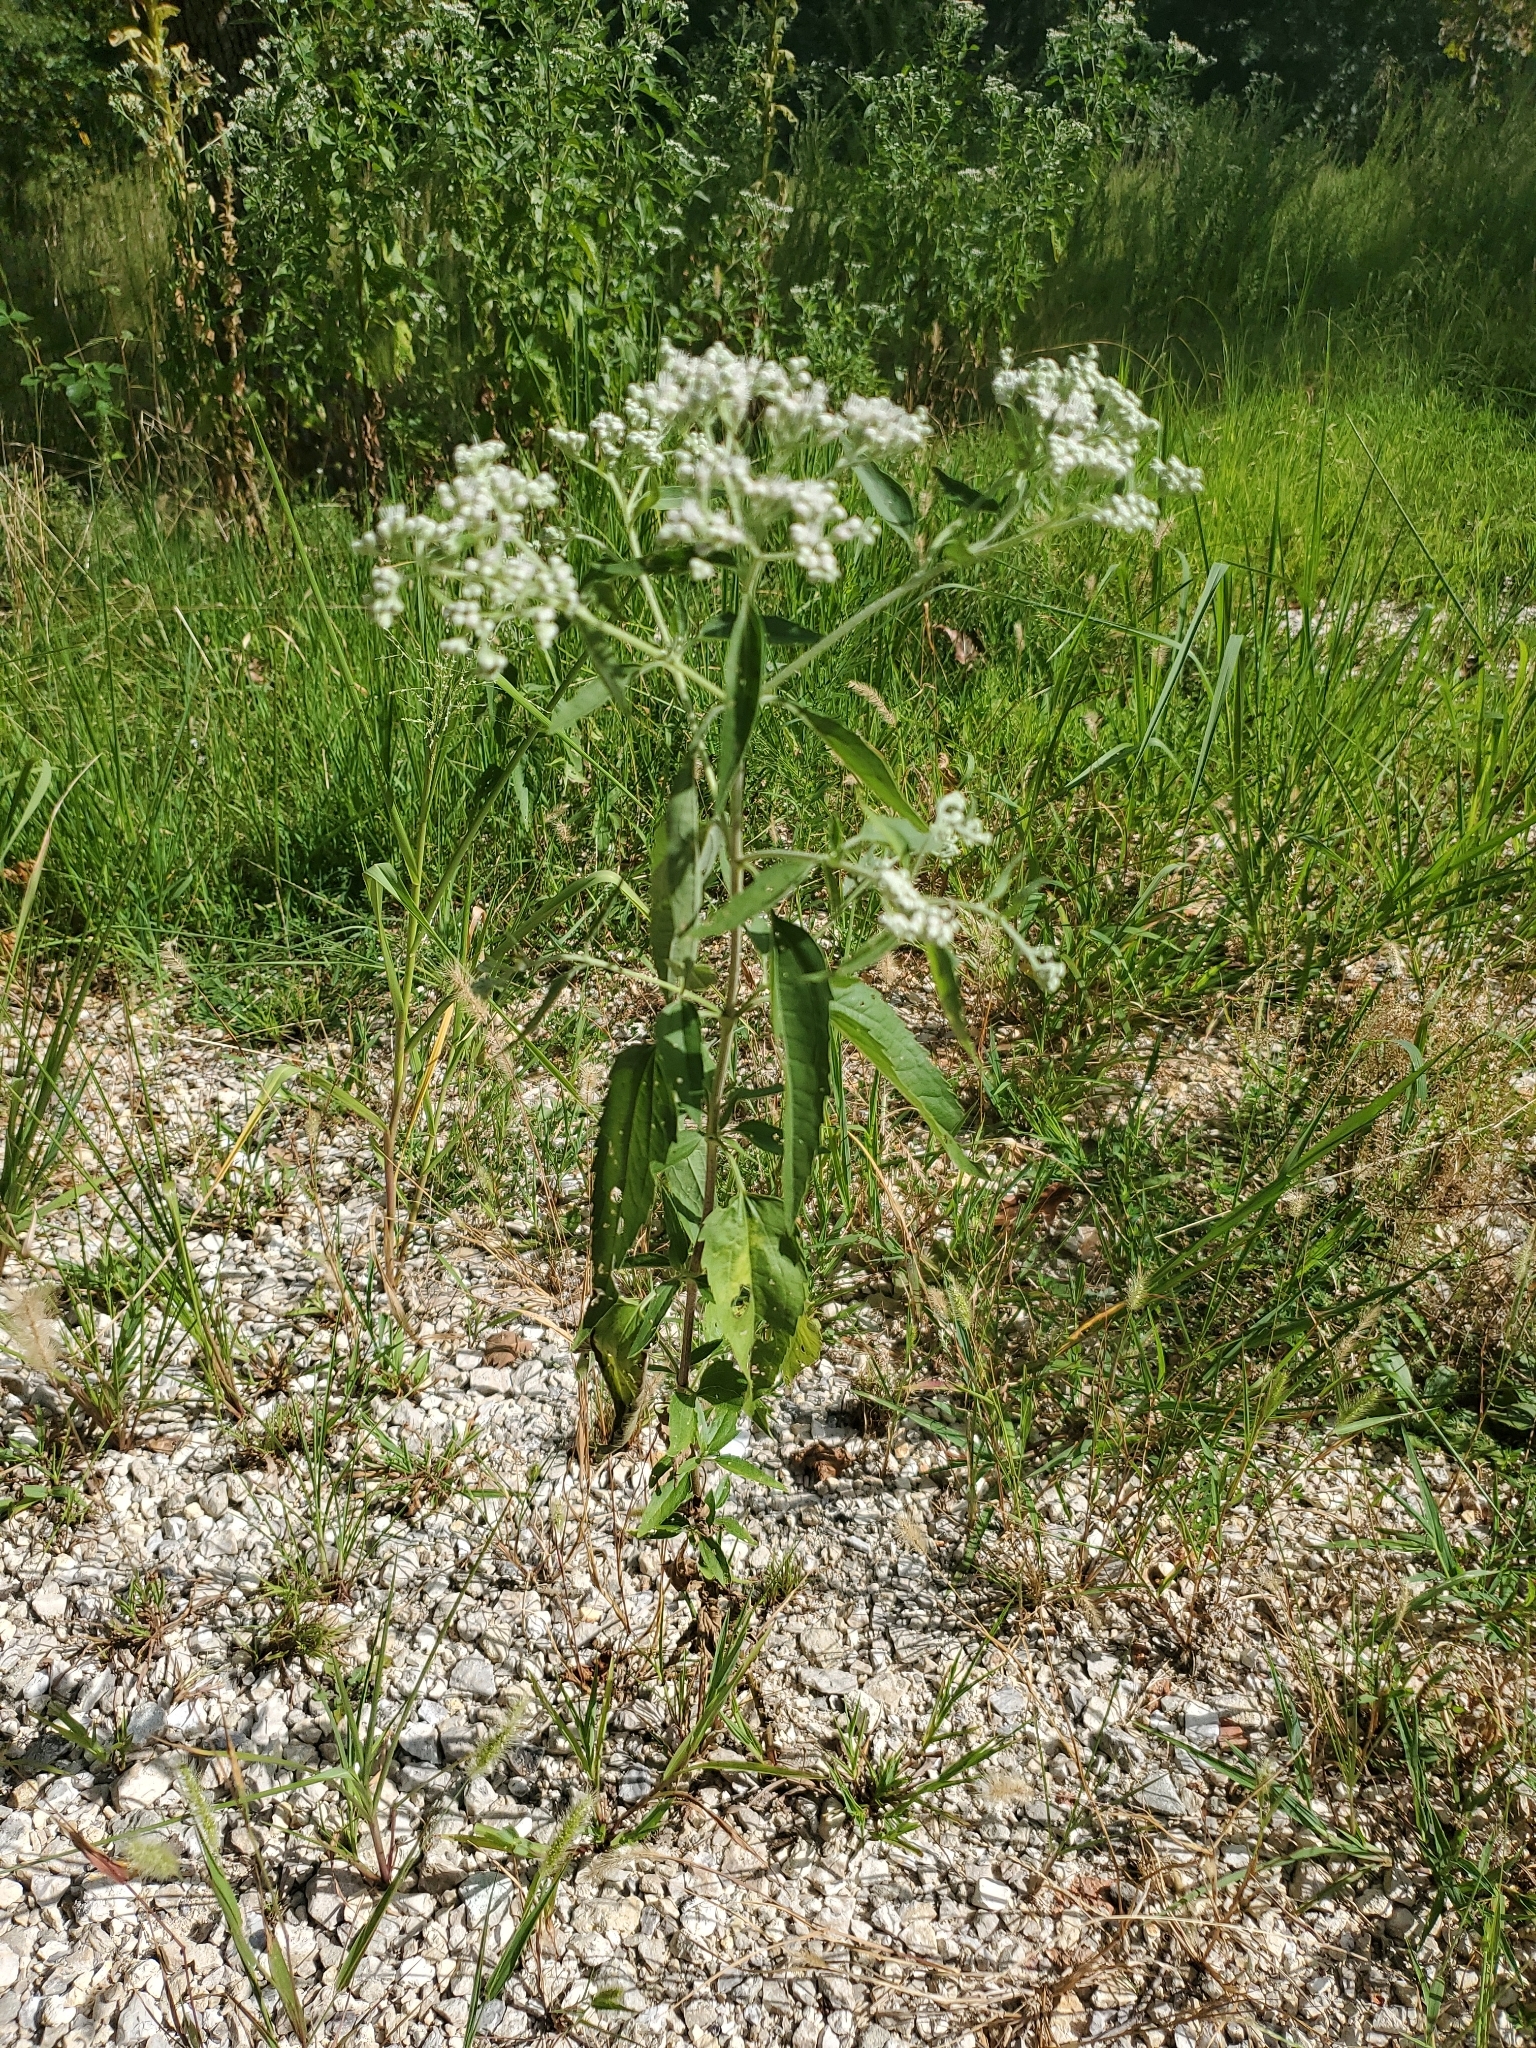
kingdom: Plantae
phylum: Tracheophyta
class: Magnoliopsida
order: Asterales
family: Asteraceae
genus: Eupatorium
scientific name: Eupatorium serotinum
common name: Late boneset
